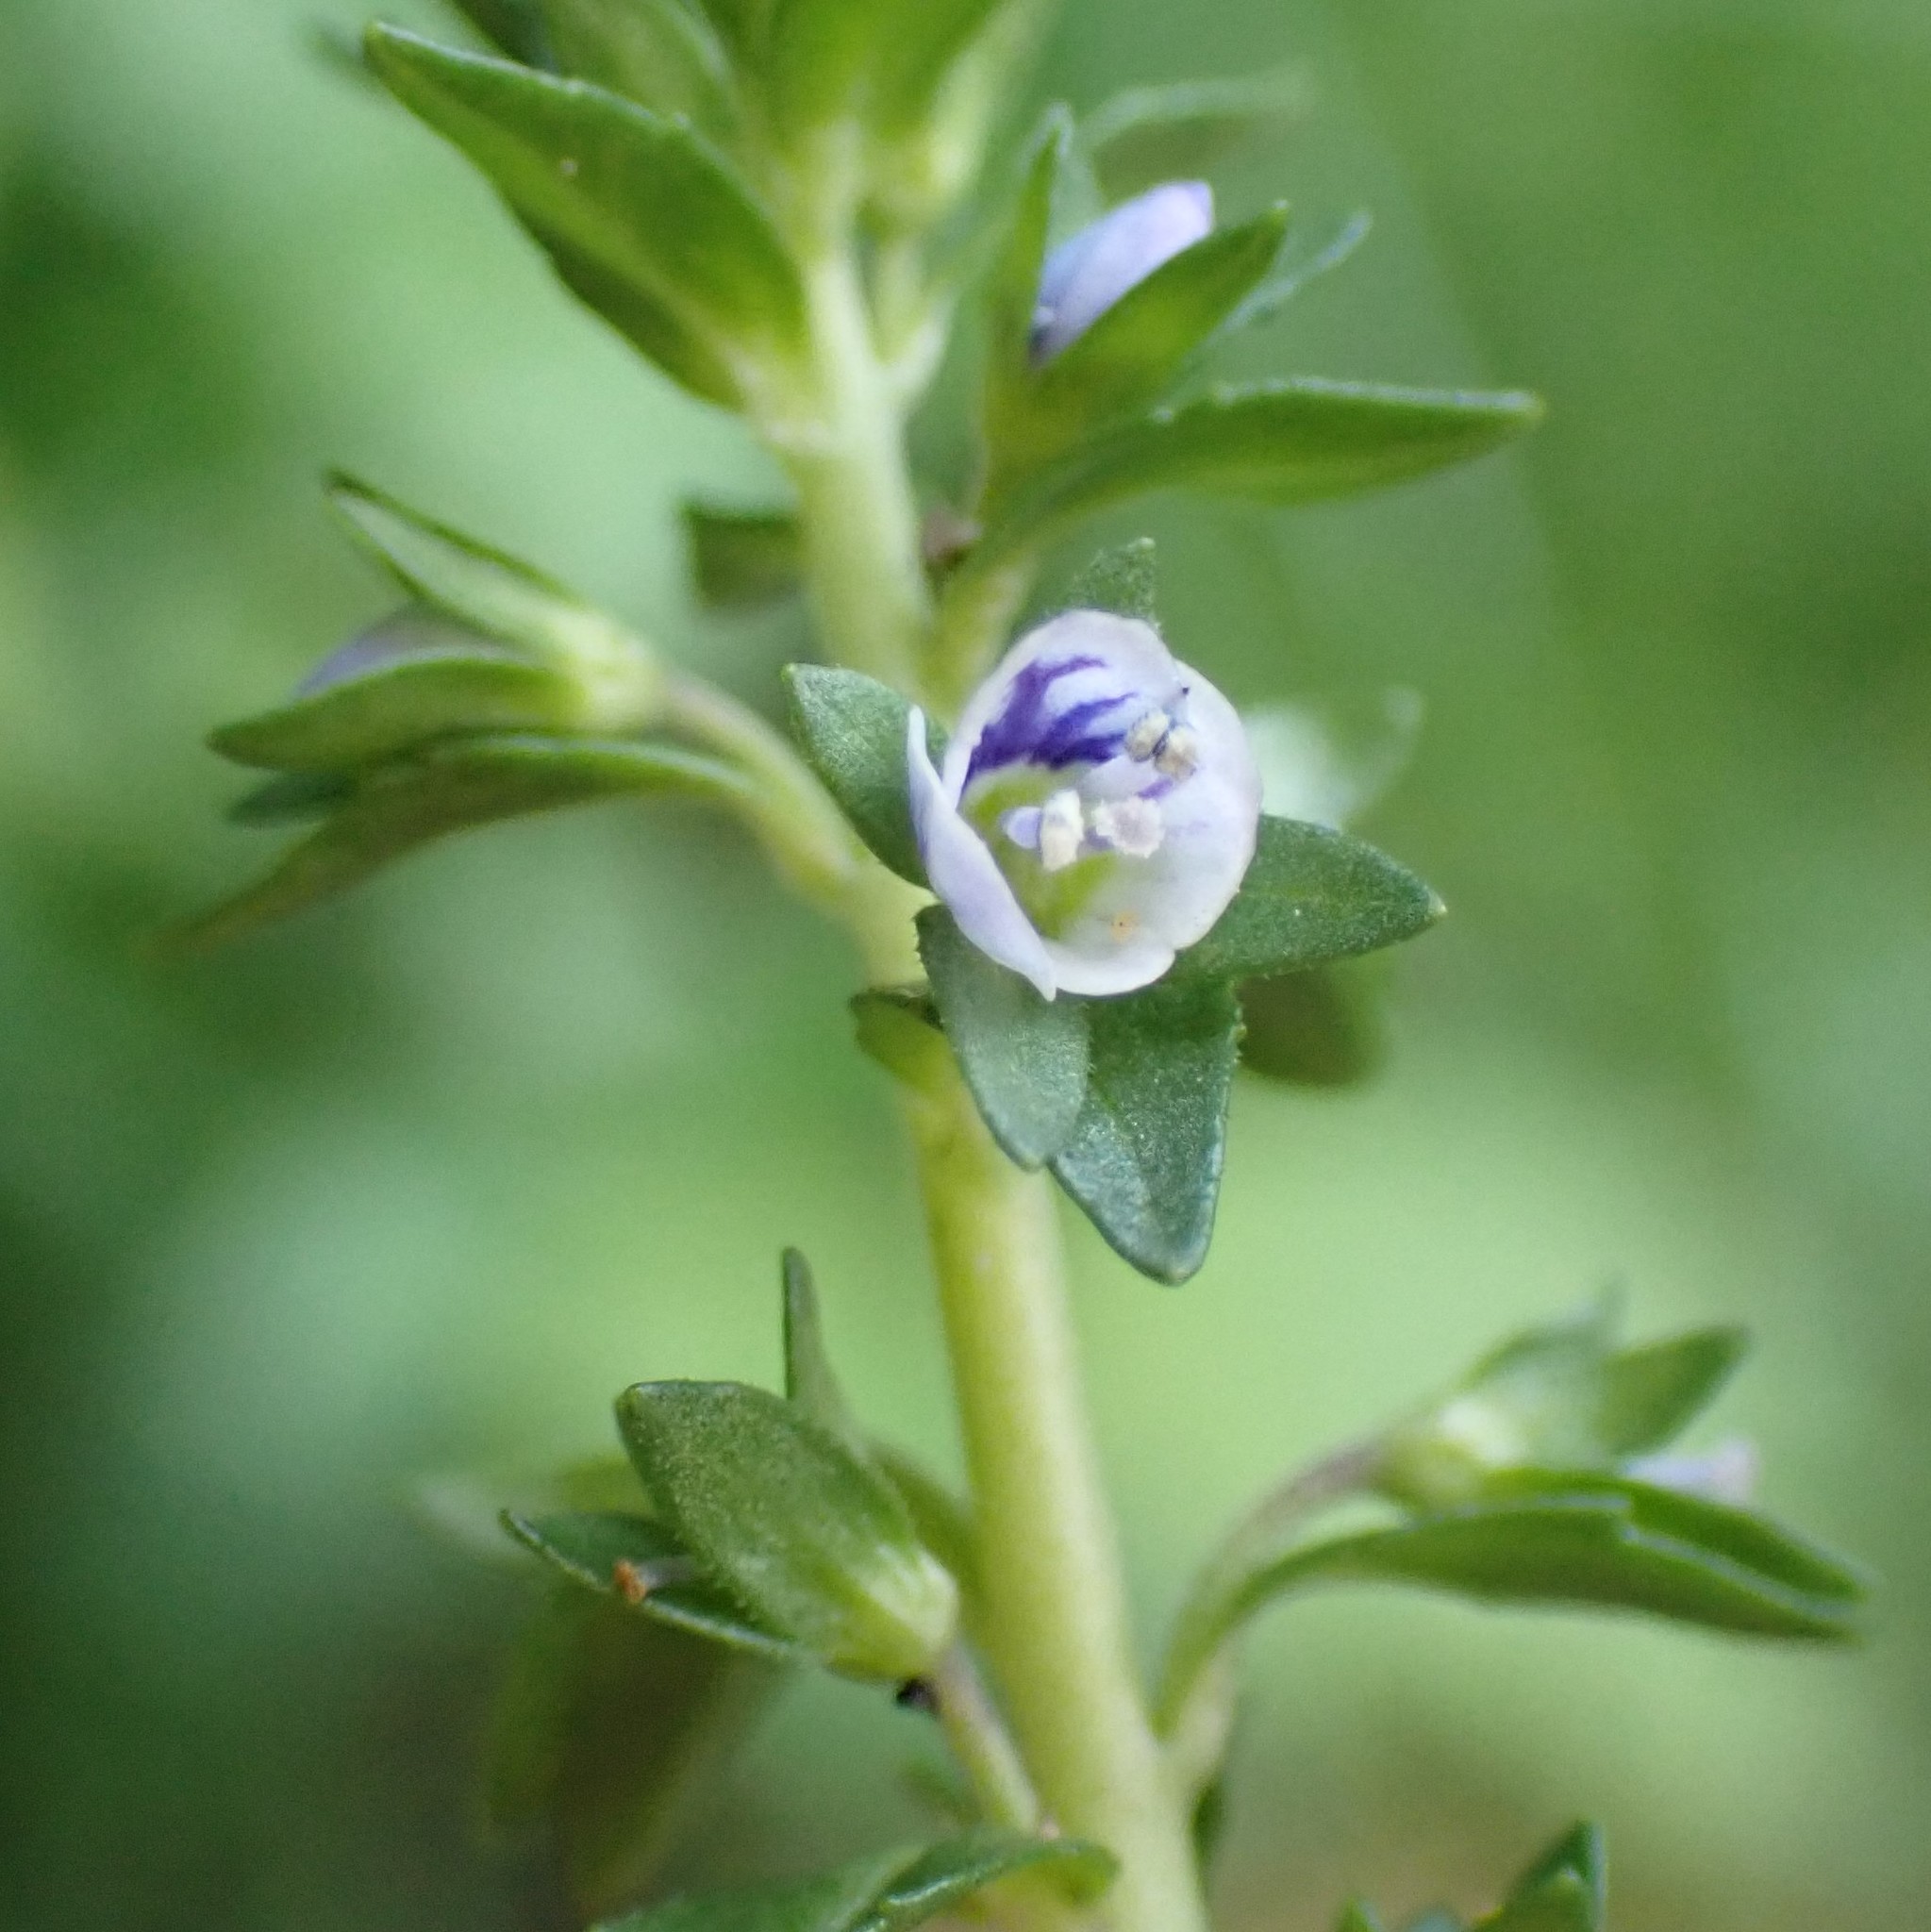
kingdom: Plantae
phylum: Tracheophyta
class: Magnoliopsida
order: Lamiales
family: Plantaginaceae
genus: Veronica
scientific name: Veronica serpyllifolia
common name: Thyme-leaved speedwell
